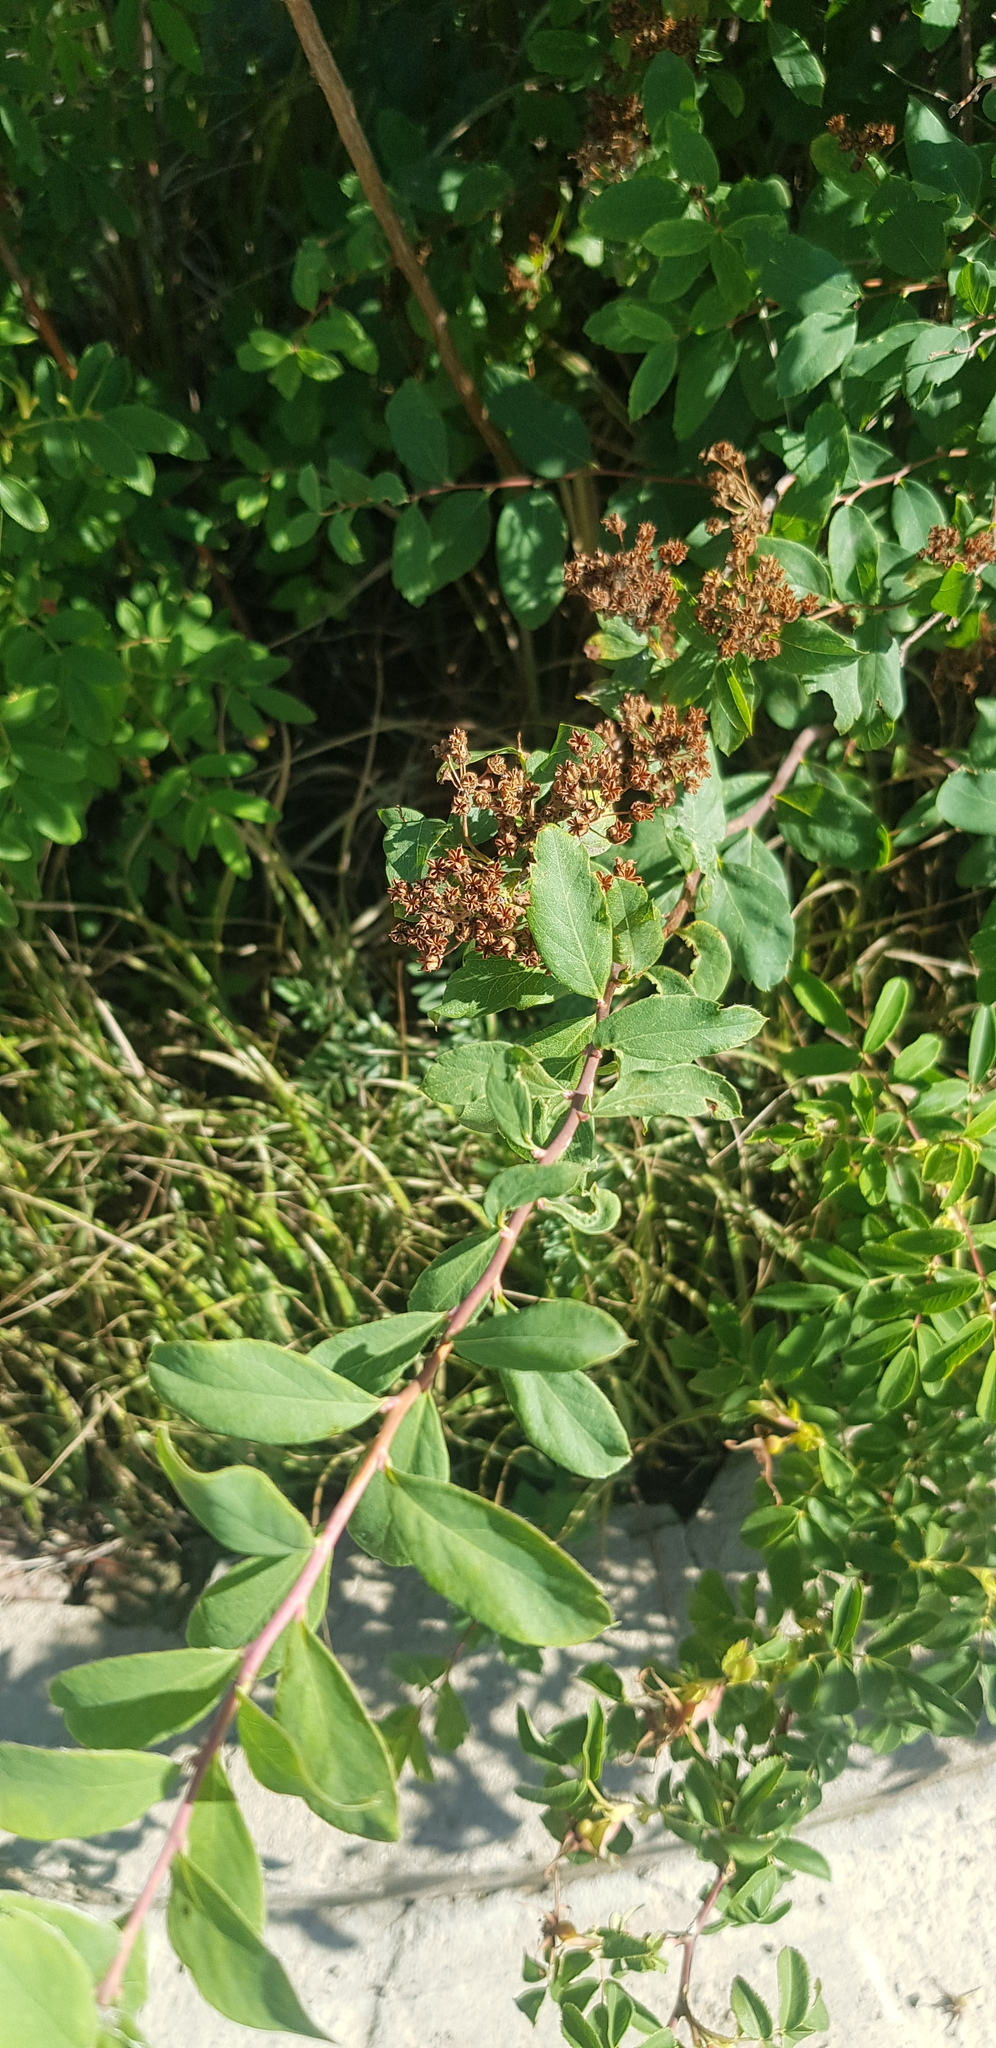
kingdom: Plantae
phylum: Tracheophyta
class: Magnoliopsida
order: Rosales
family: Rosaceae
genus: Spiraea
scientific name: Spiraea media
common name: Russian spiraea
